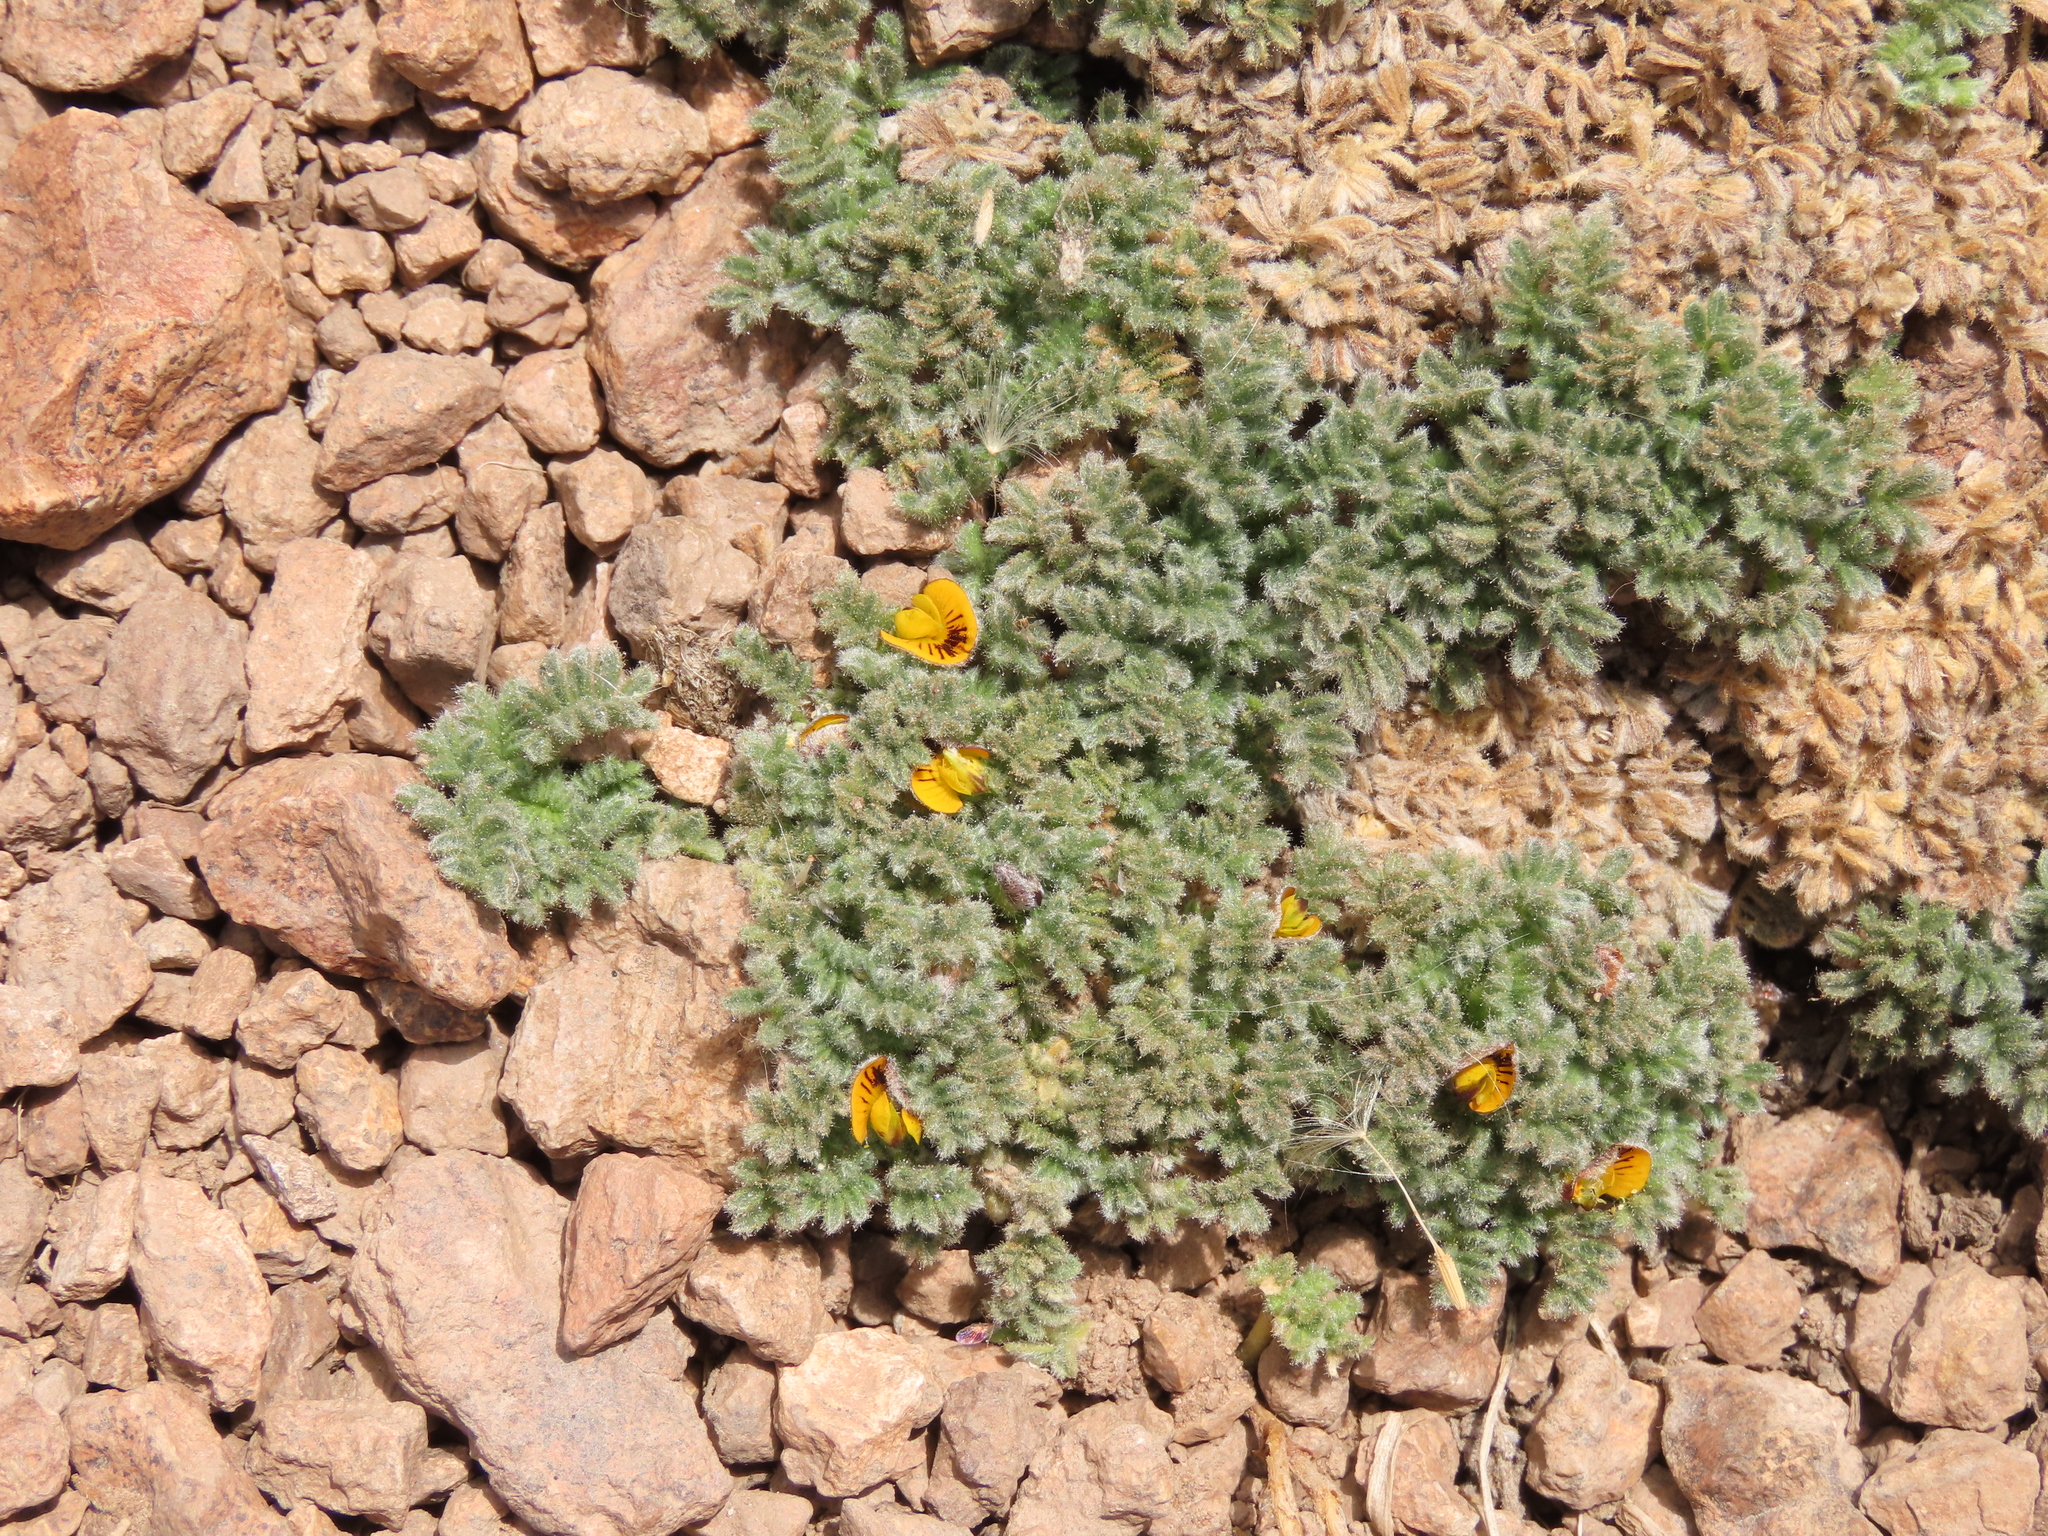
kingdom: Plantae
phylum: Tracheophyta
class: Magnoliopsida
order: Fabales
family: Fabaceae
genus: Adesmia
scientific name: Adesmia glomerula
